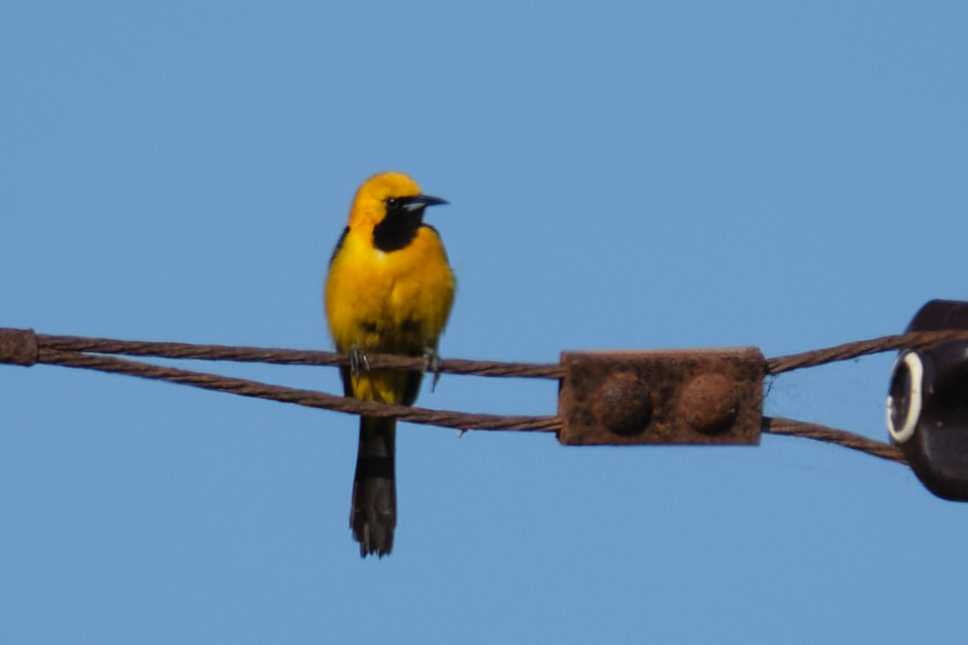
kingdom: Animalia
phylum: Chordata
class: Aves
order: Passeriformes
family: Icteridae
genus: Icterus
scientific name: Icterus cucullatus
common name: Hooded oriole
